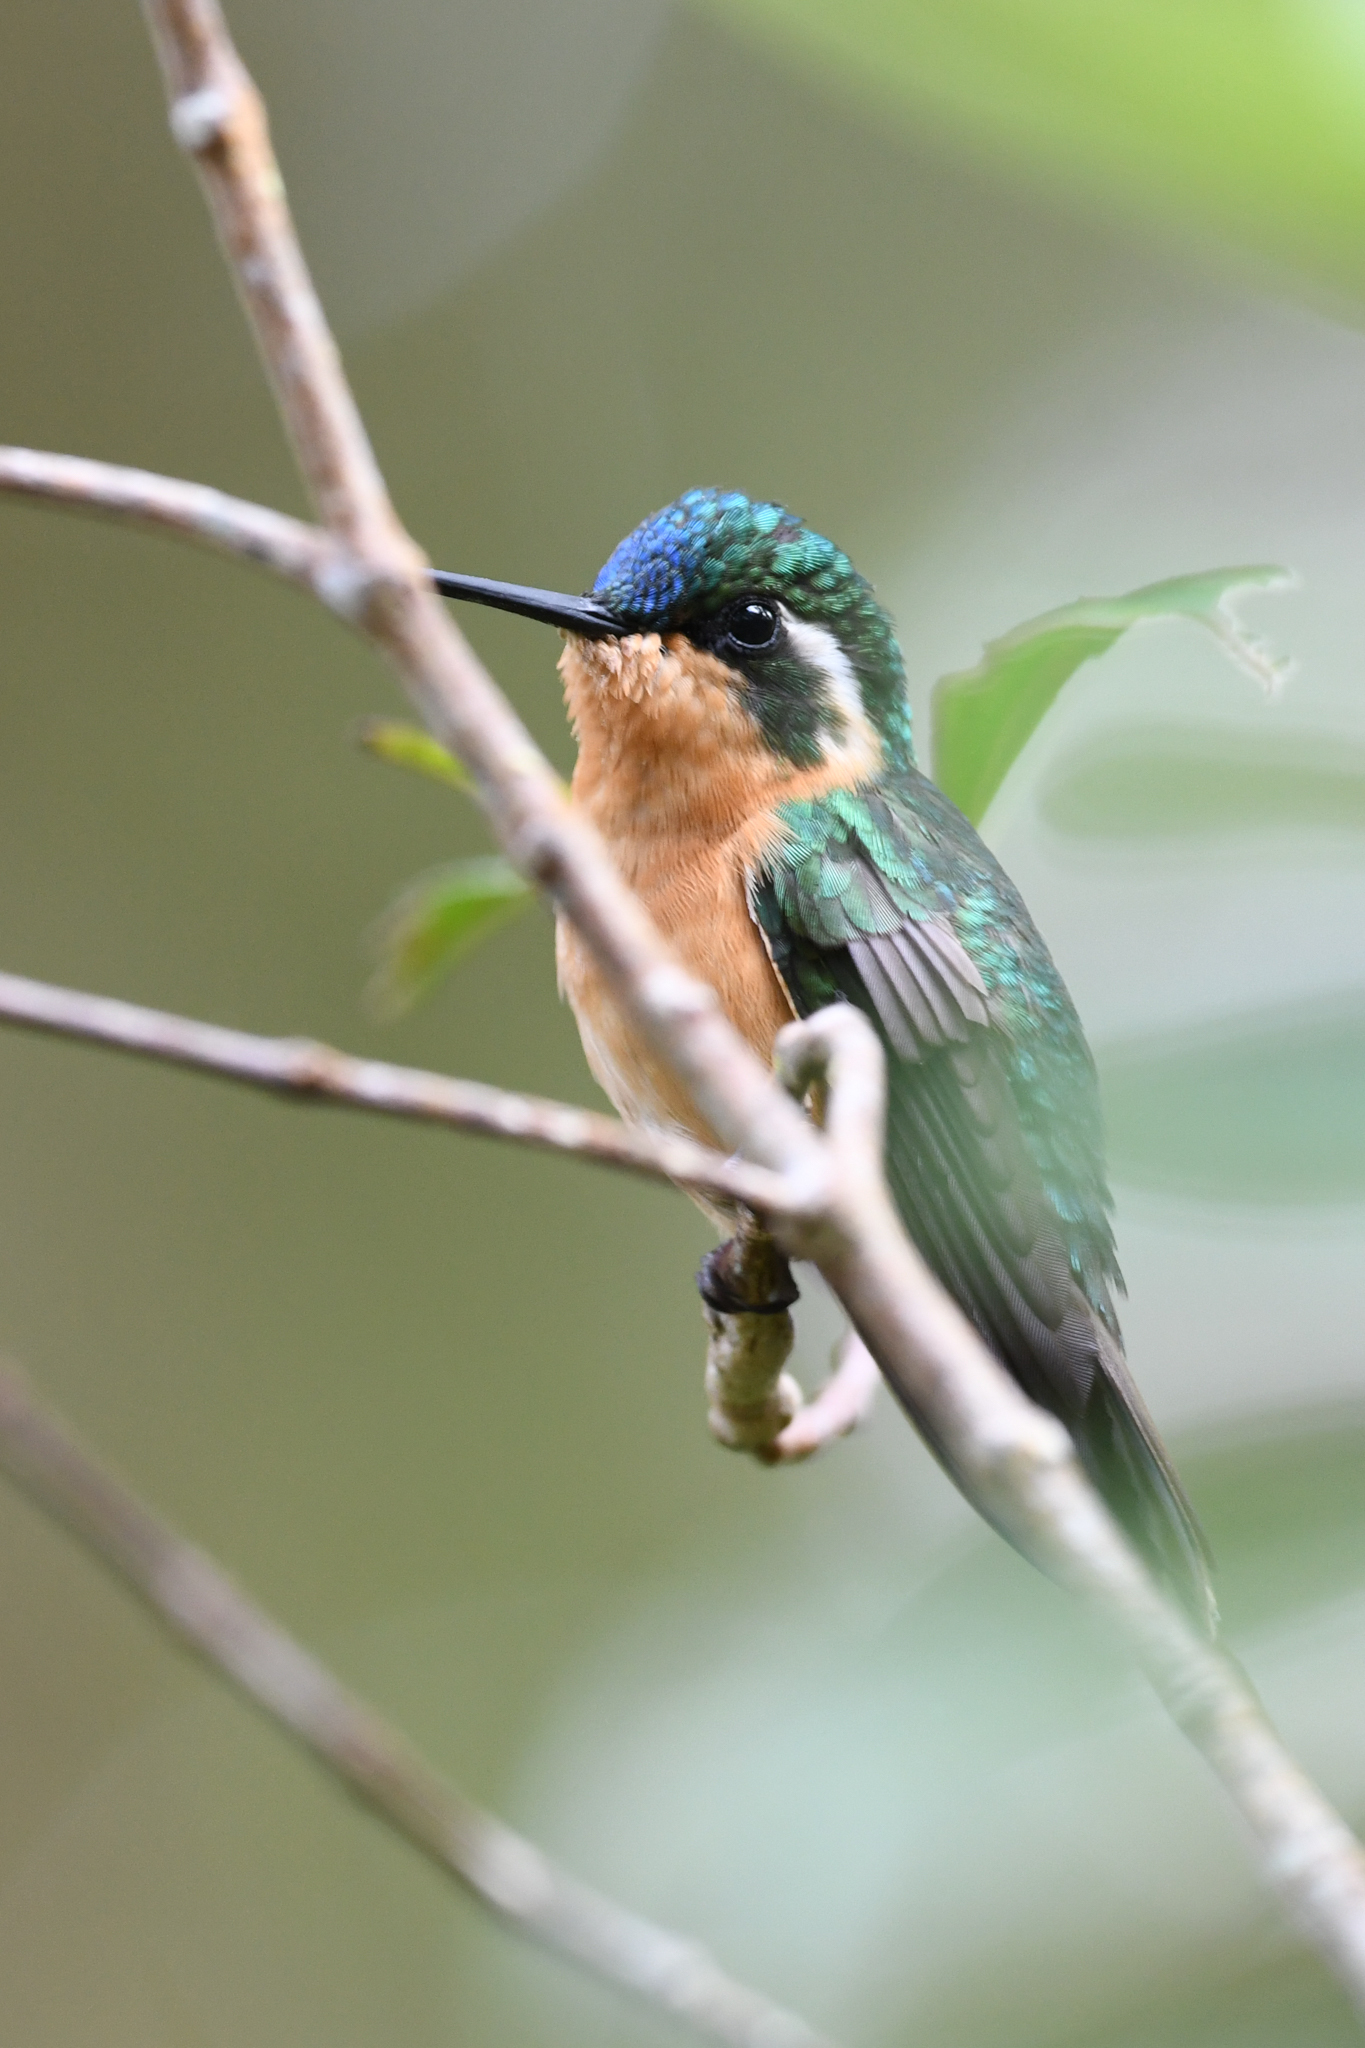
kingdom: Animalia
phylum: Chordata
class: Aves
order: Apodiformes
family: Trochilidae
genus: Lampornis
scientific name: Lampornis castaneoventris
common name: White-throated mountain-gem
